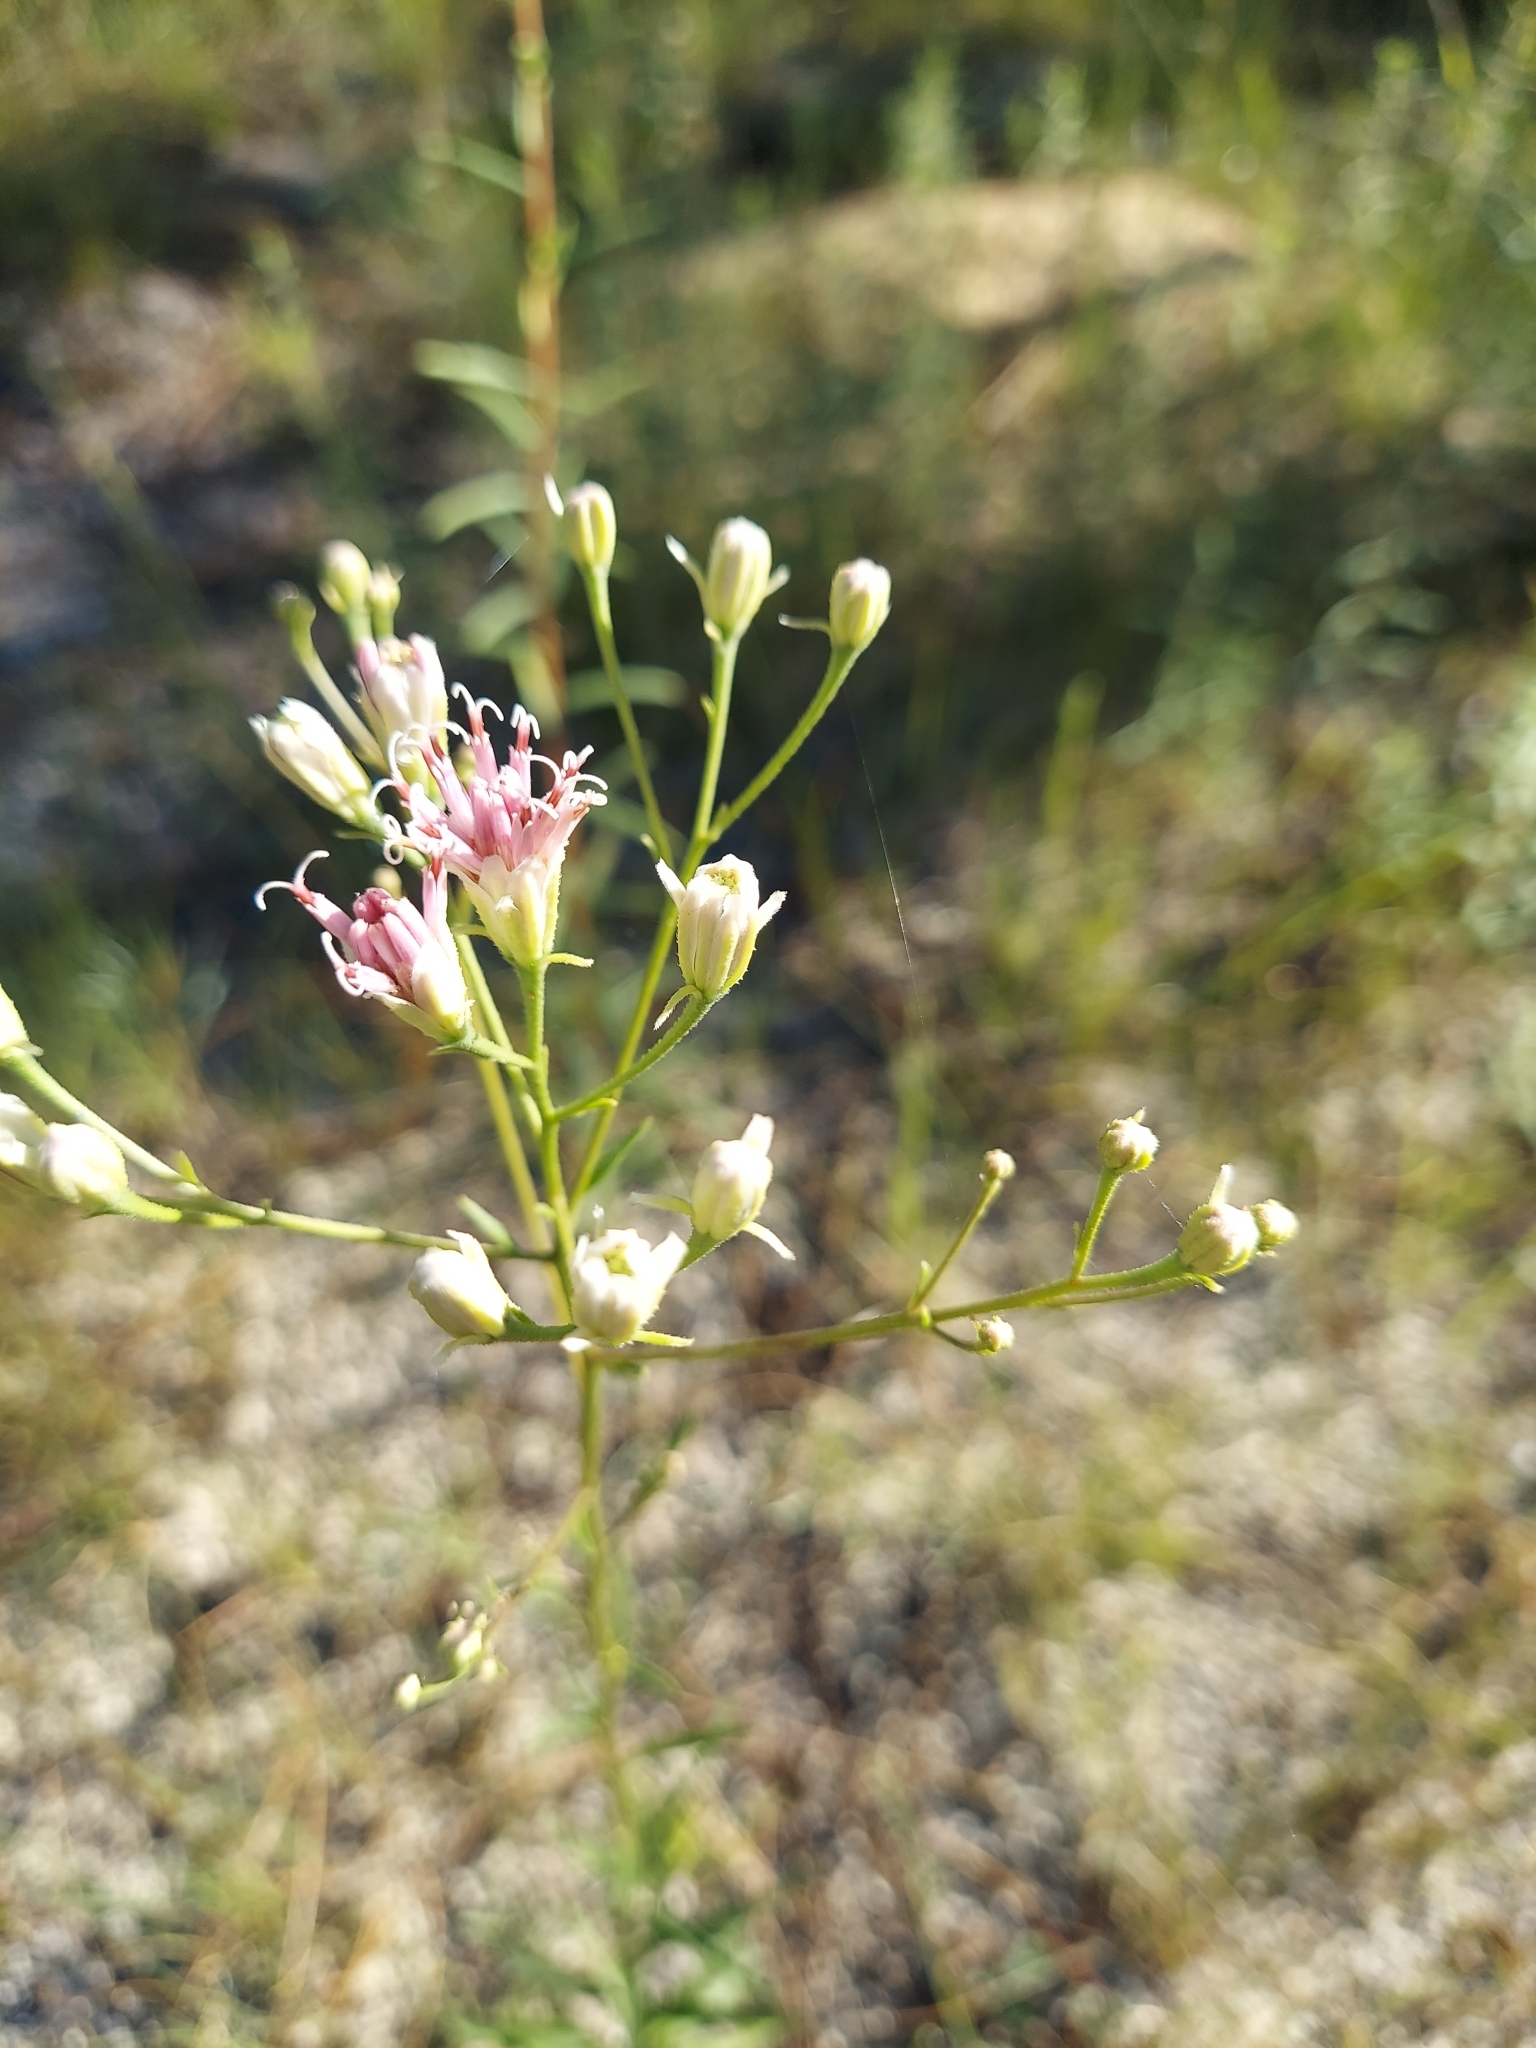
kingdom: Plantae
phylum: Tracheophyta
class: Magnoliopsida
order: Asterales
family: Asteraceae
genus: Palafoxia
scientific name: Palafoxia integrifolia
